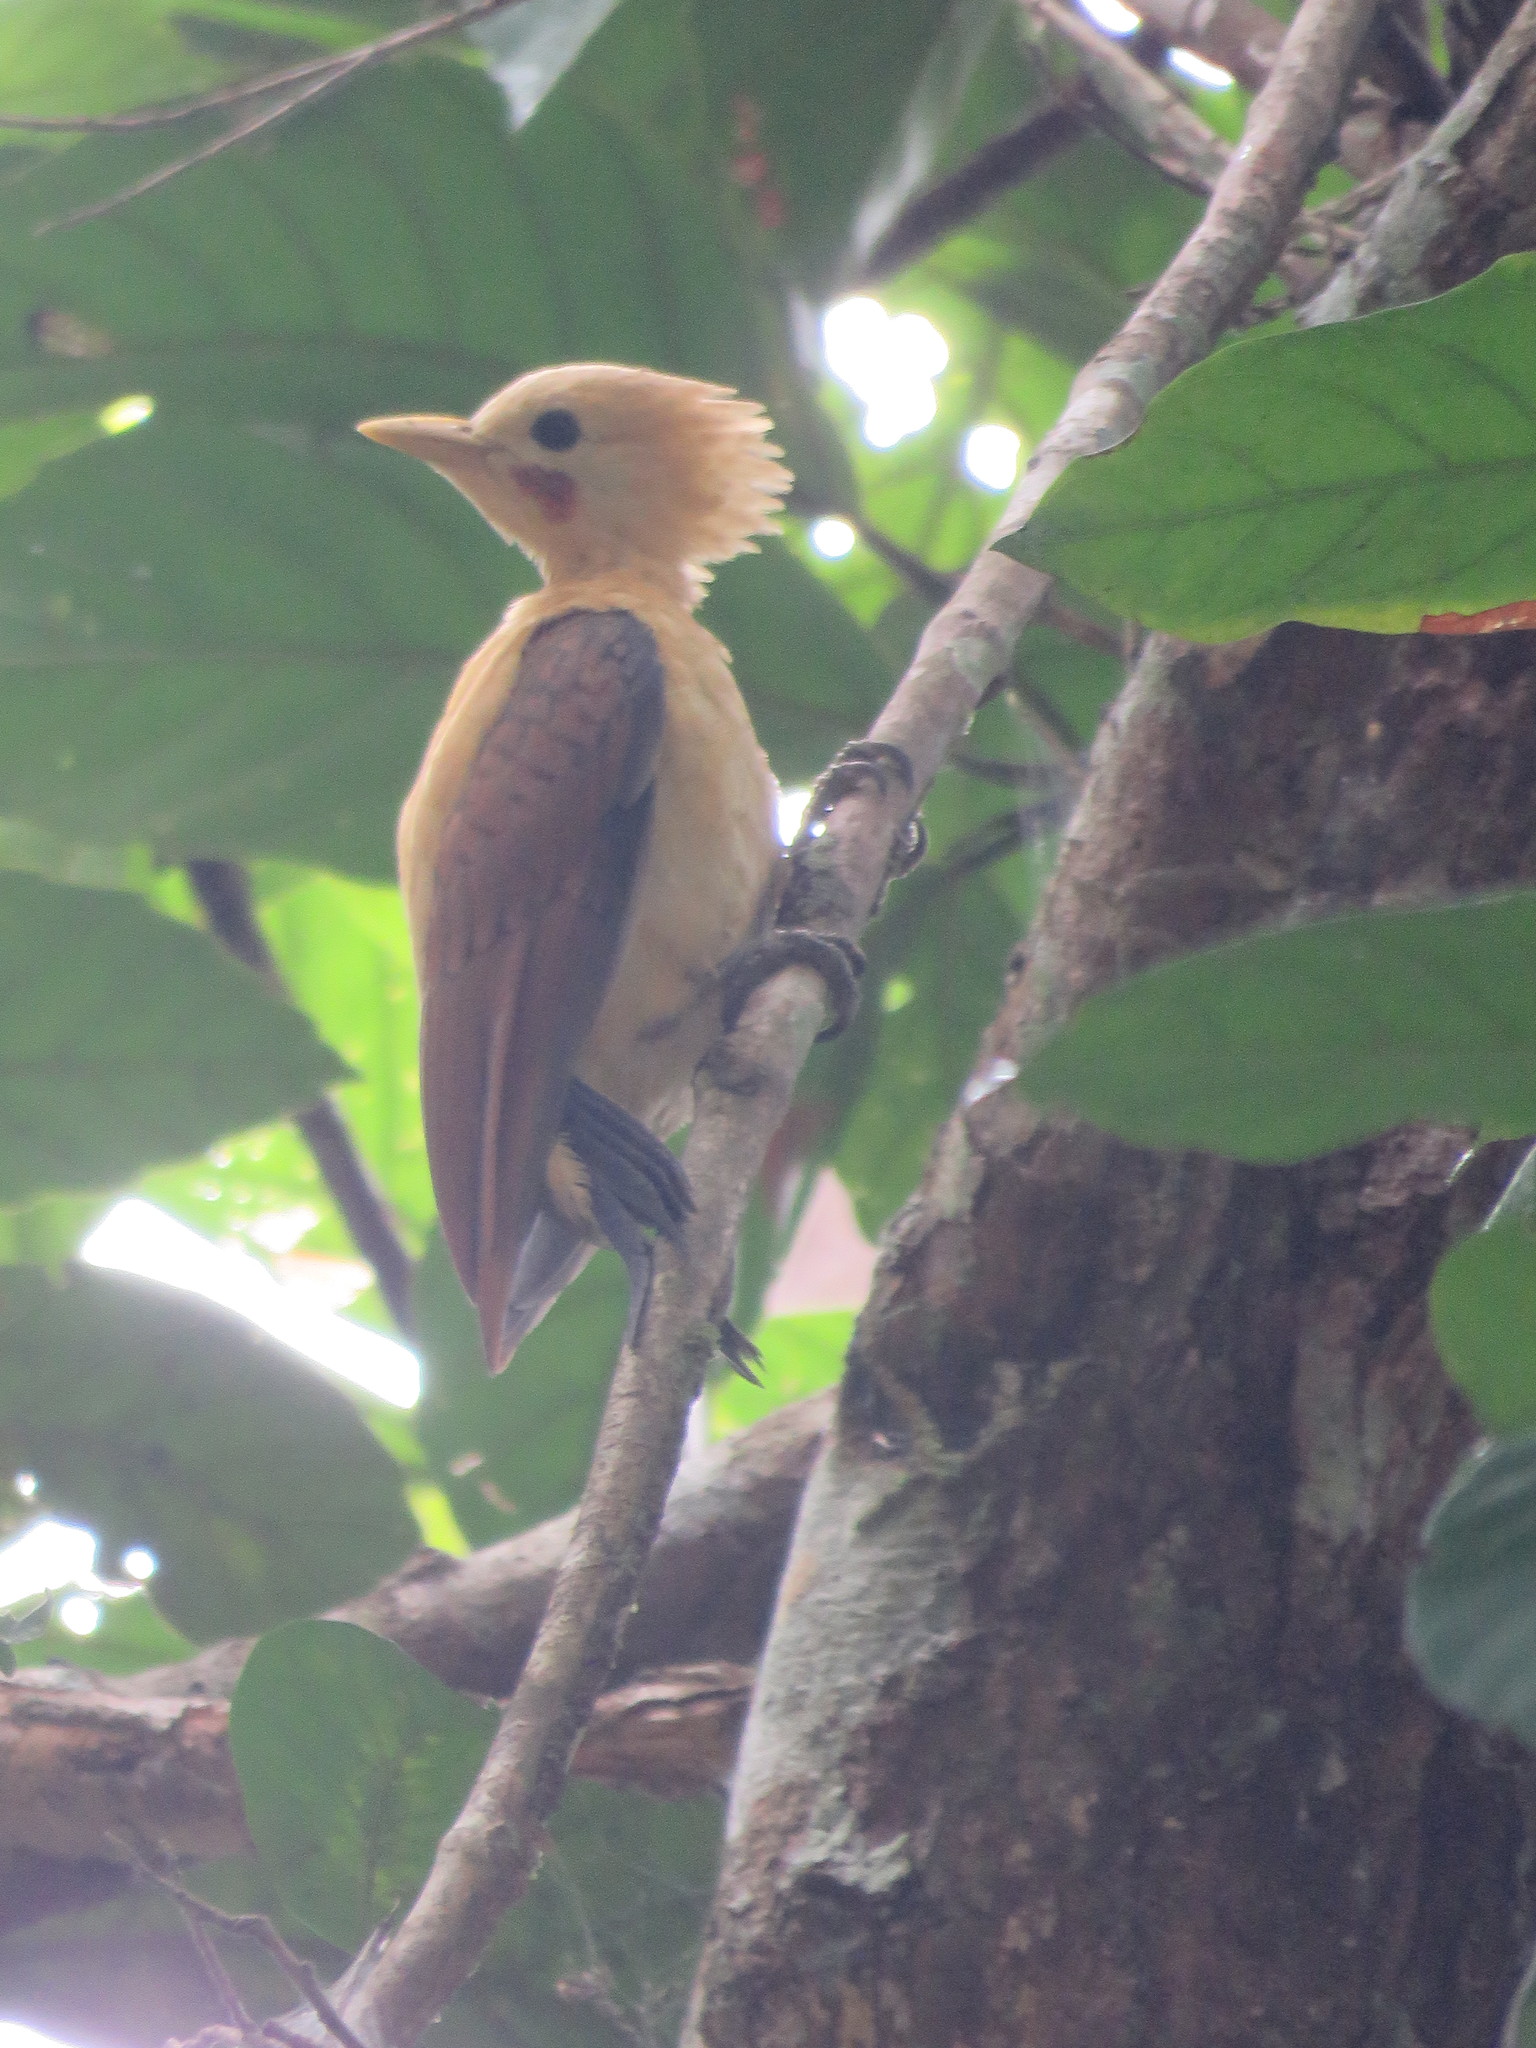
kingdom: Animalia
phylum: Chordata
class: Aves
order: Piciformes
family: Picidae
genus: Celeus
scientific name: Celeus flavus
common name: Cream-colored woodpecker
